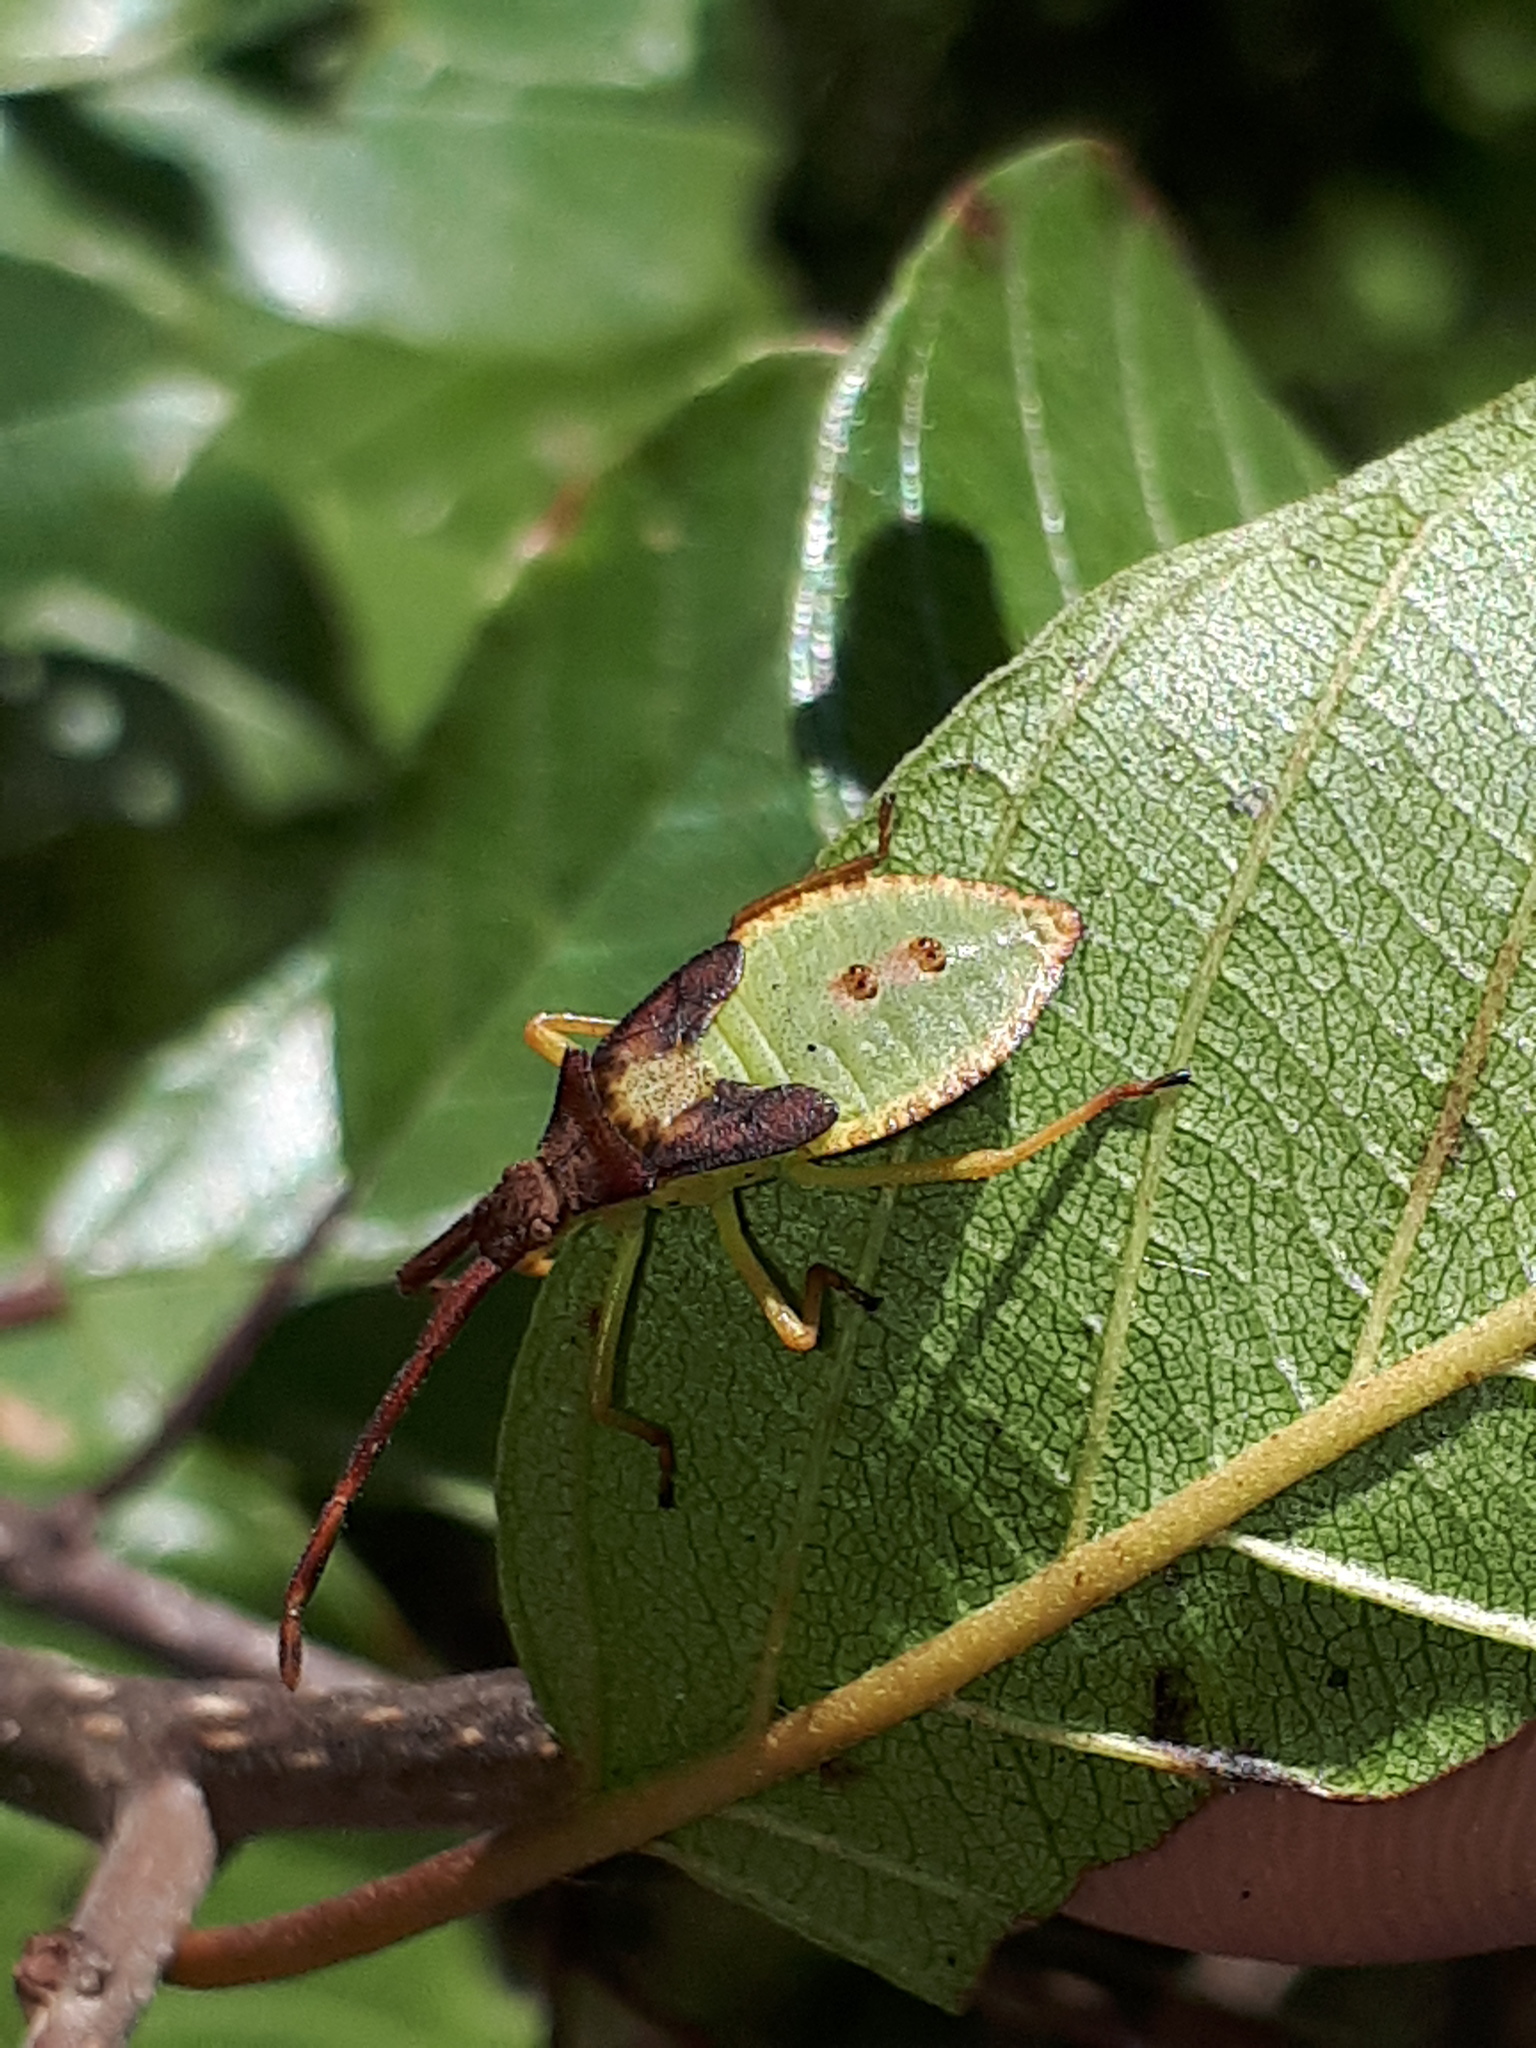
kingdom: Animalia
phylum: Arthropoda
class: Insecta
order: Hemiptera
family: Coreidae
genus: Gonocerus
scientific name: Gonocerus acuteangulatus
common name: Box bug
